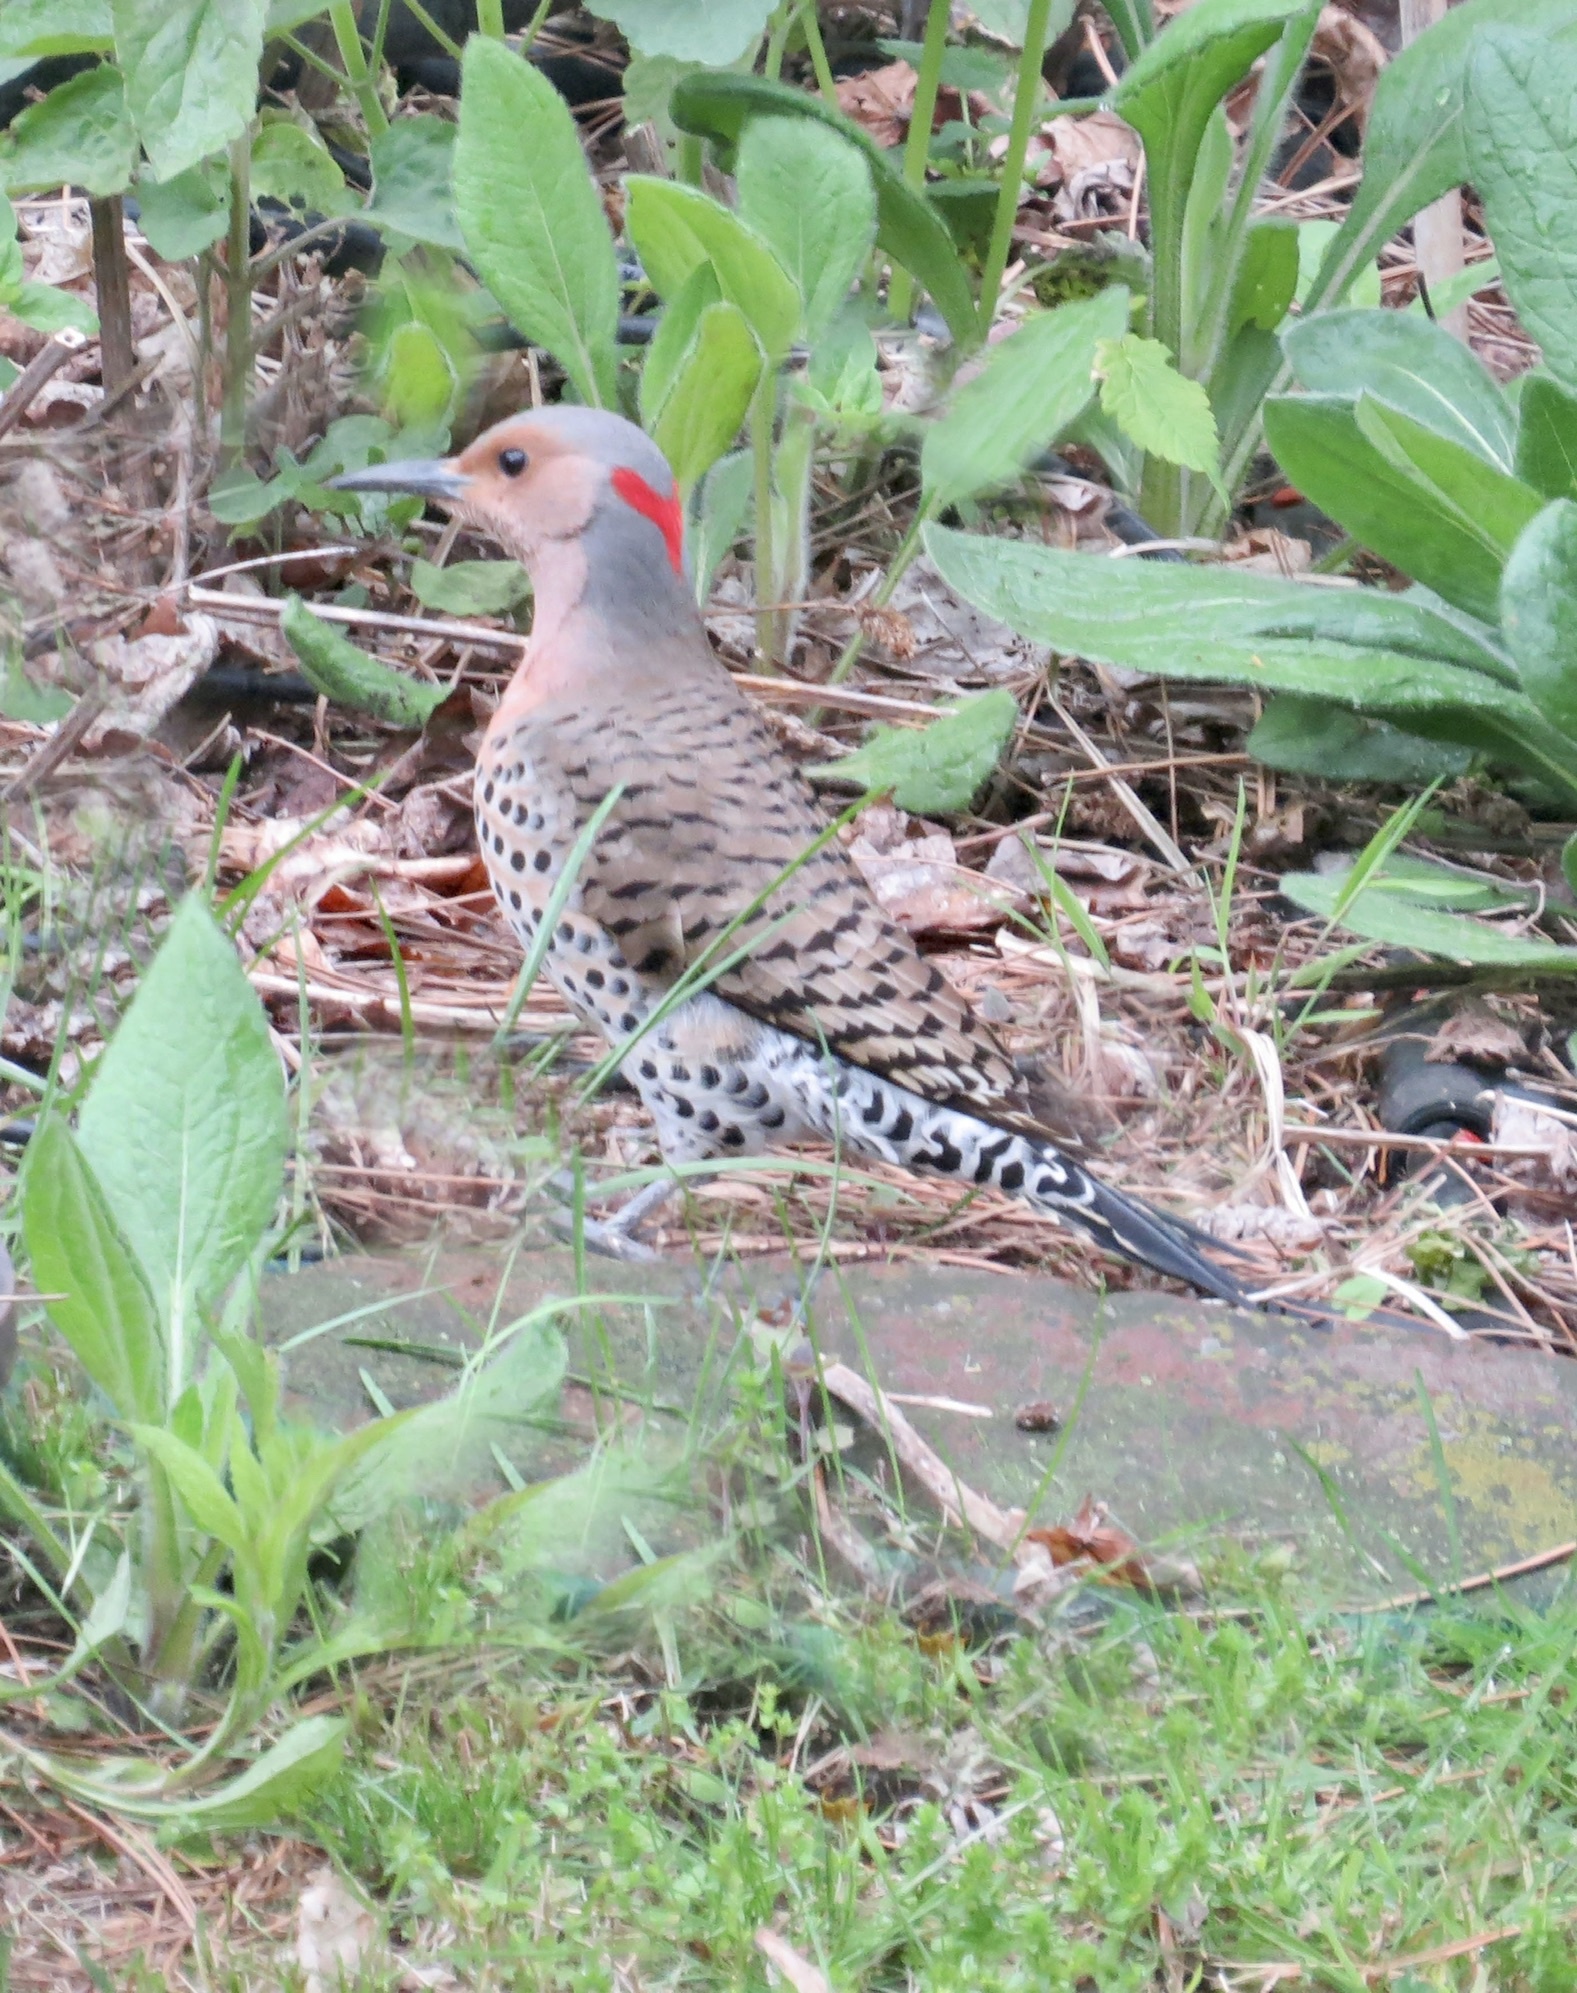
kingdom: Animalia
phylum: Chordata
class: Aves
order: Piciformes
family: Picidae
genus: Colaptes
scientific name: Colaptes auratus
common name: Northern flicker
